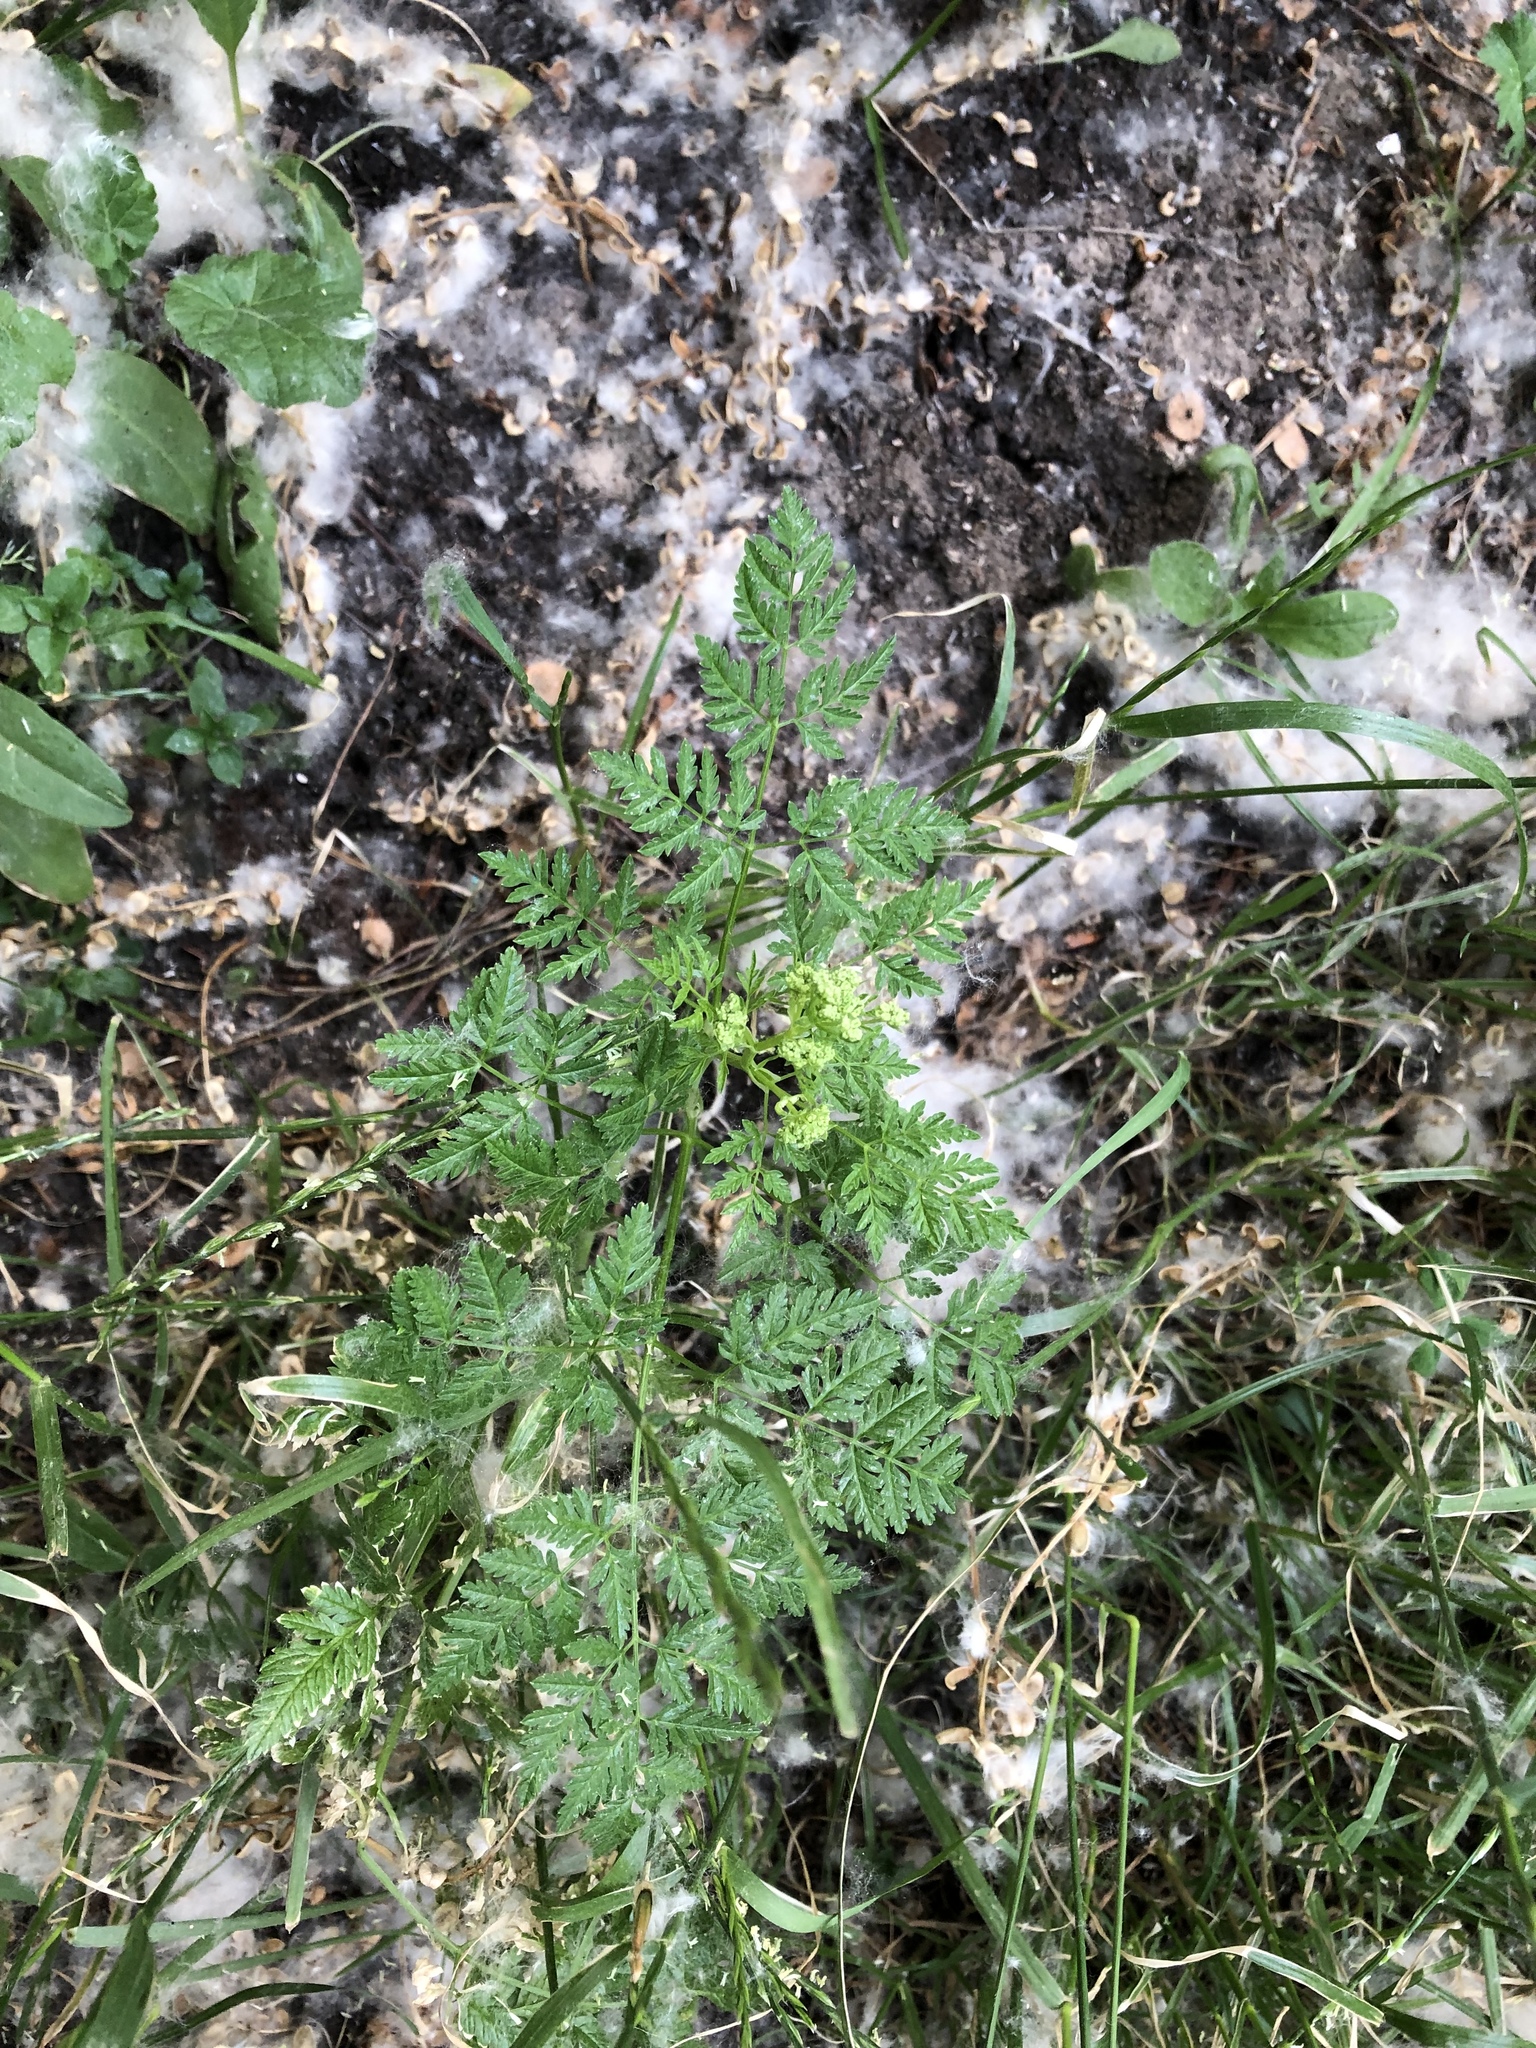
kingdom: Plantae
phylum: Tracheophyta
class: Magnoliopsida
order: Apiales
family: Apiaceae
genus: Anthriscus
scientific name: Anthriscus sylvestris
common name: Cow parsley
